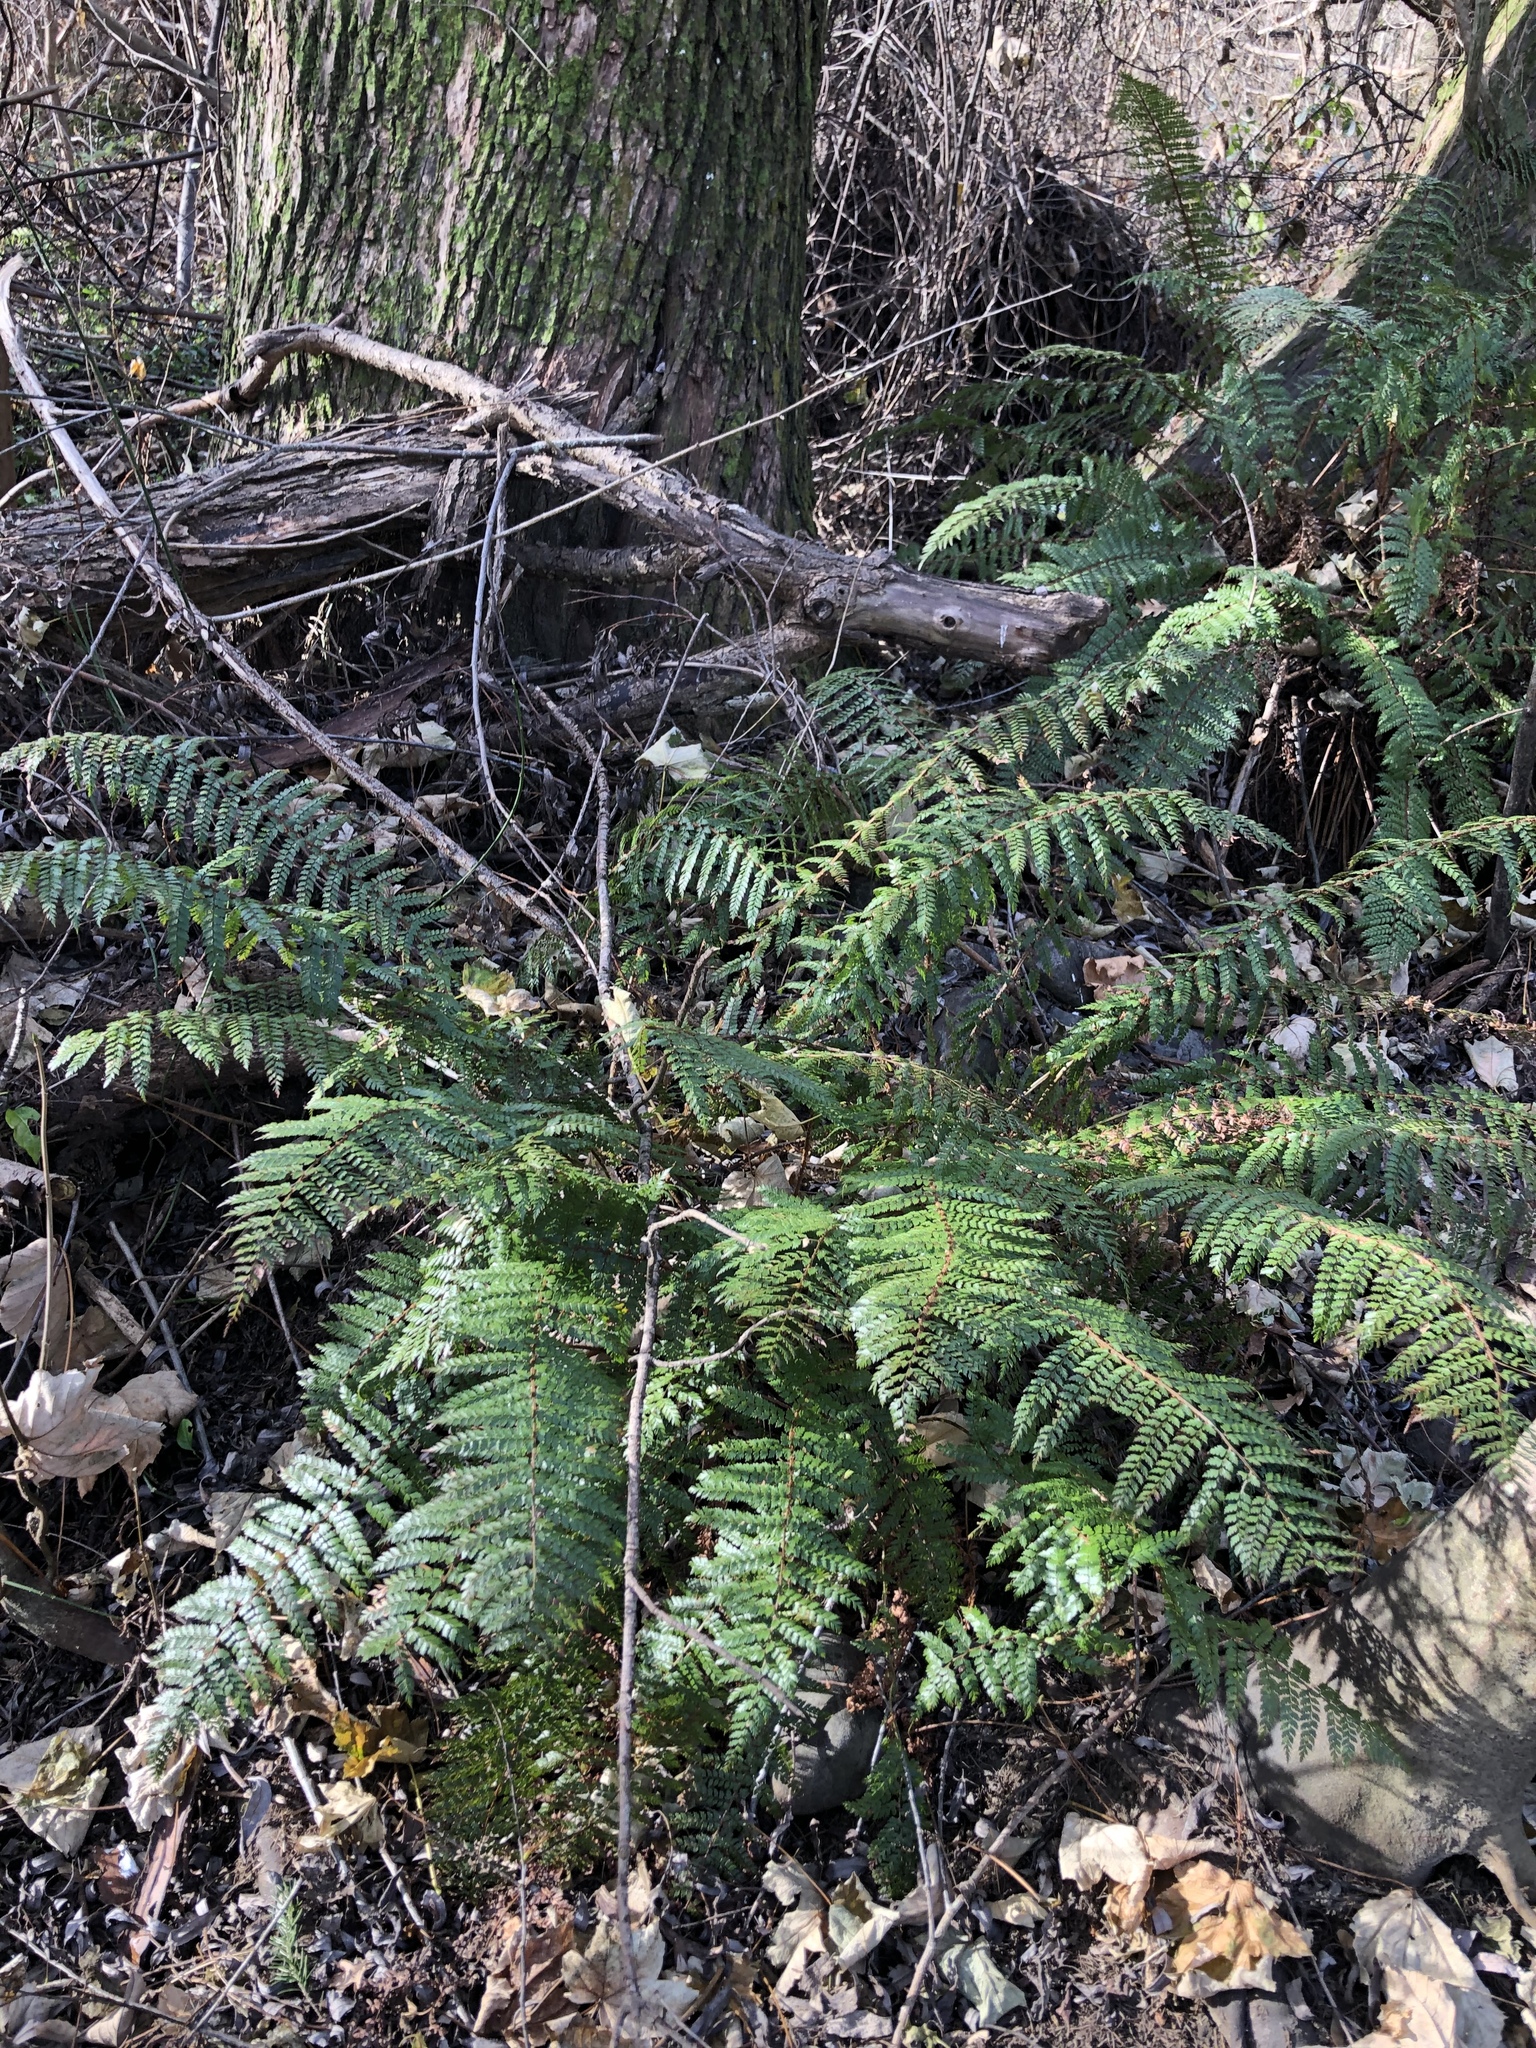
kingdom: Plantae
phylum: Tracheophyta
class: Polypodiopsida
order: Polypodiales
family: Dryopteridaceae
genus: Polystichum
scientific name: Polystichum vestitum
